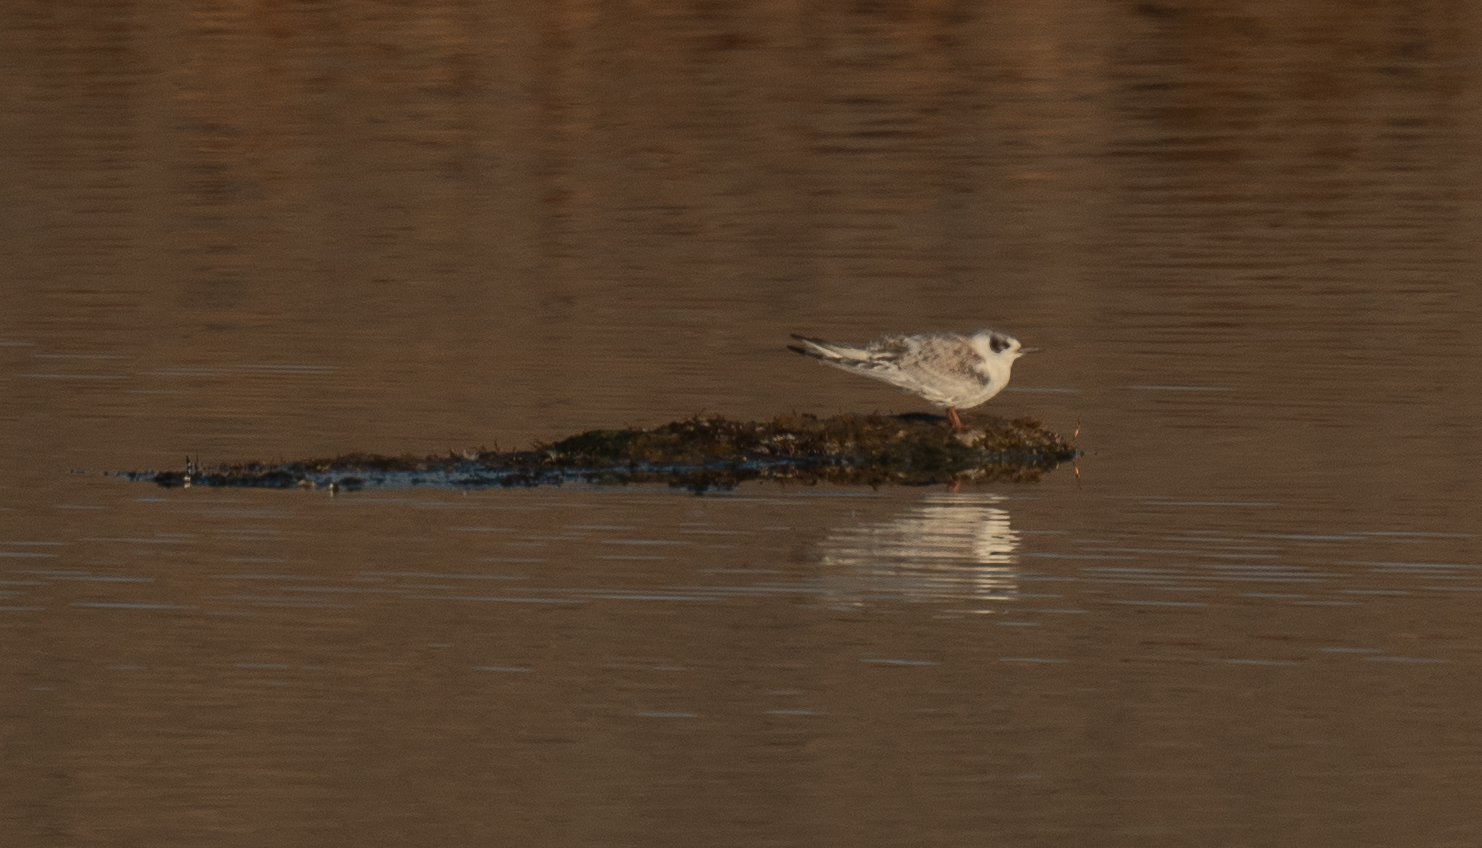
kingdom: Animalia
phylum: Chordata
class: Aves
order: Charadriiformes
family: Laridae
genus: Sterna
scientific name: Sterna forsteri
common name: Forster's tern
